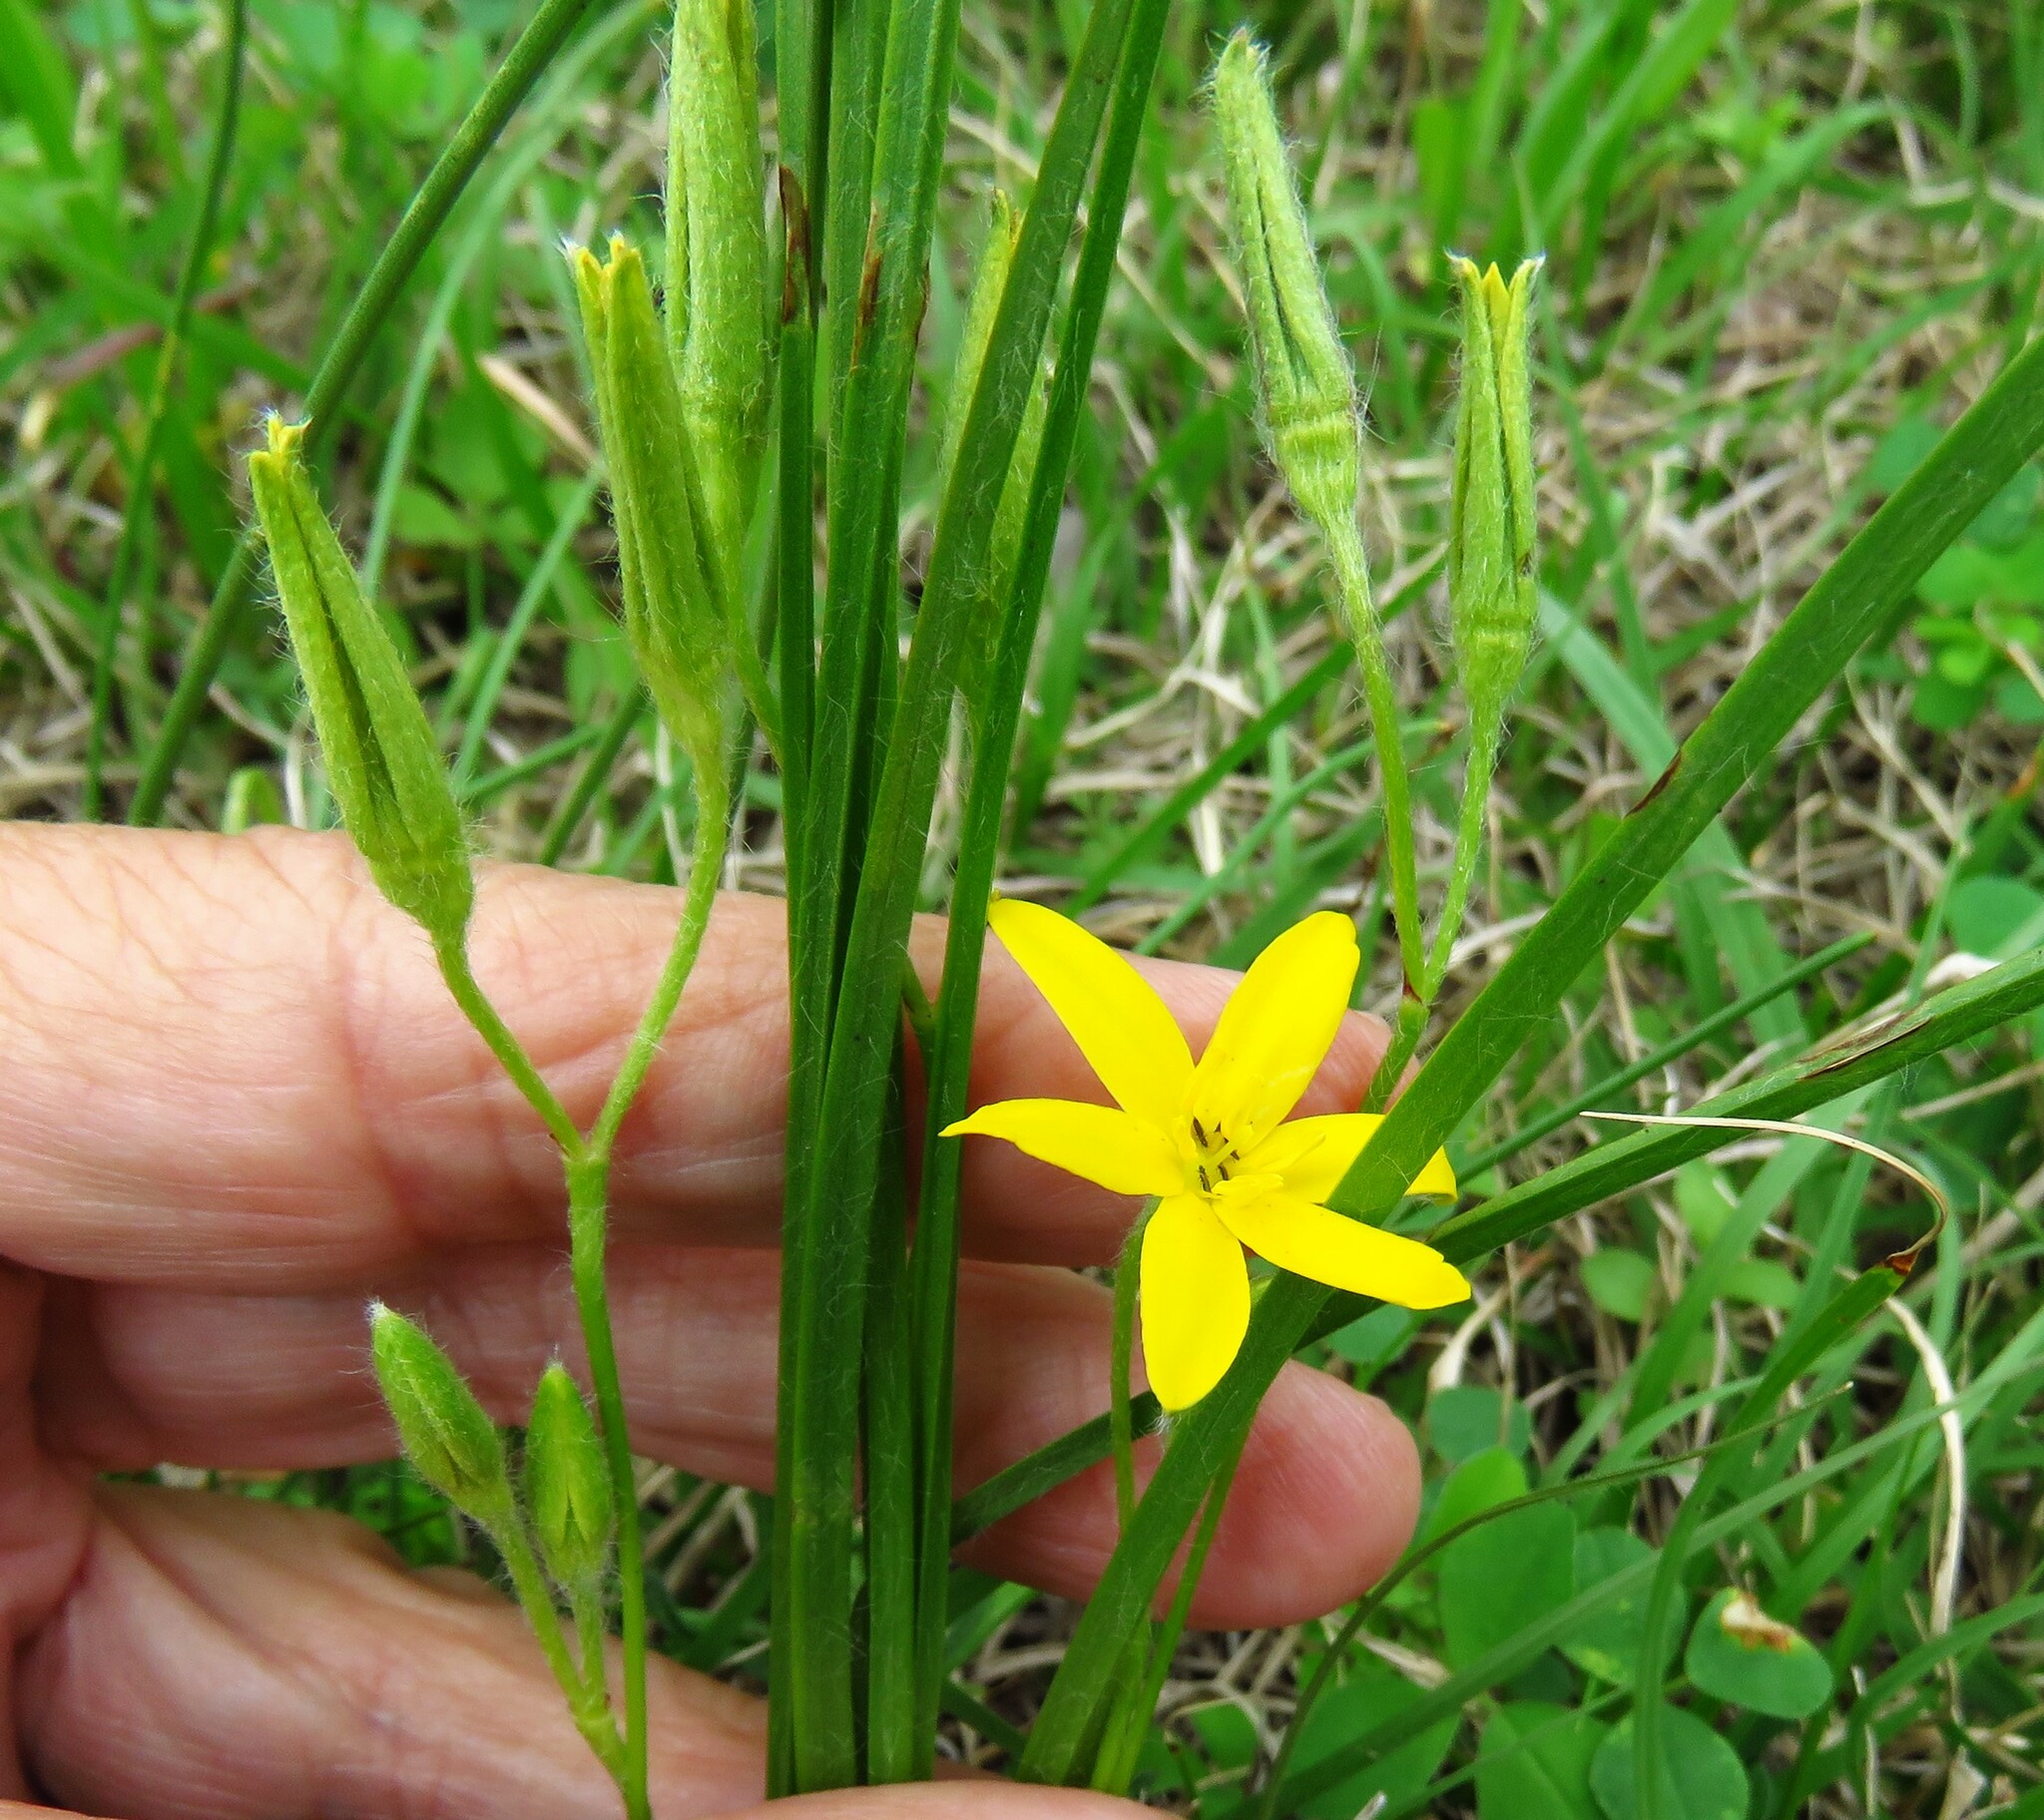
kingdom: Plantae
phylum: Tracheophyta
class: Liliopsida
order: Asparagales
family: Hypoxidaceae
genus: Hypoxis
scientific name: Hypoxis hirsuta
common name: Common goldstar
